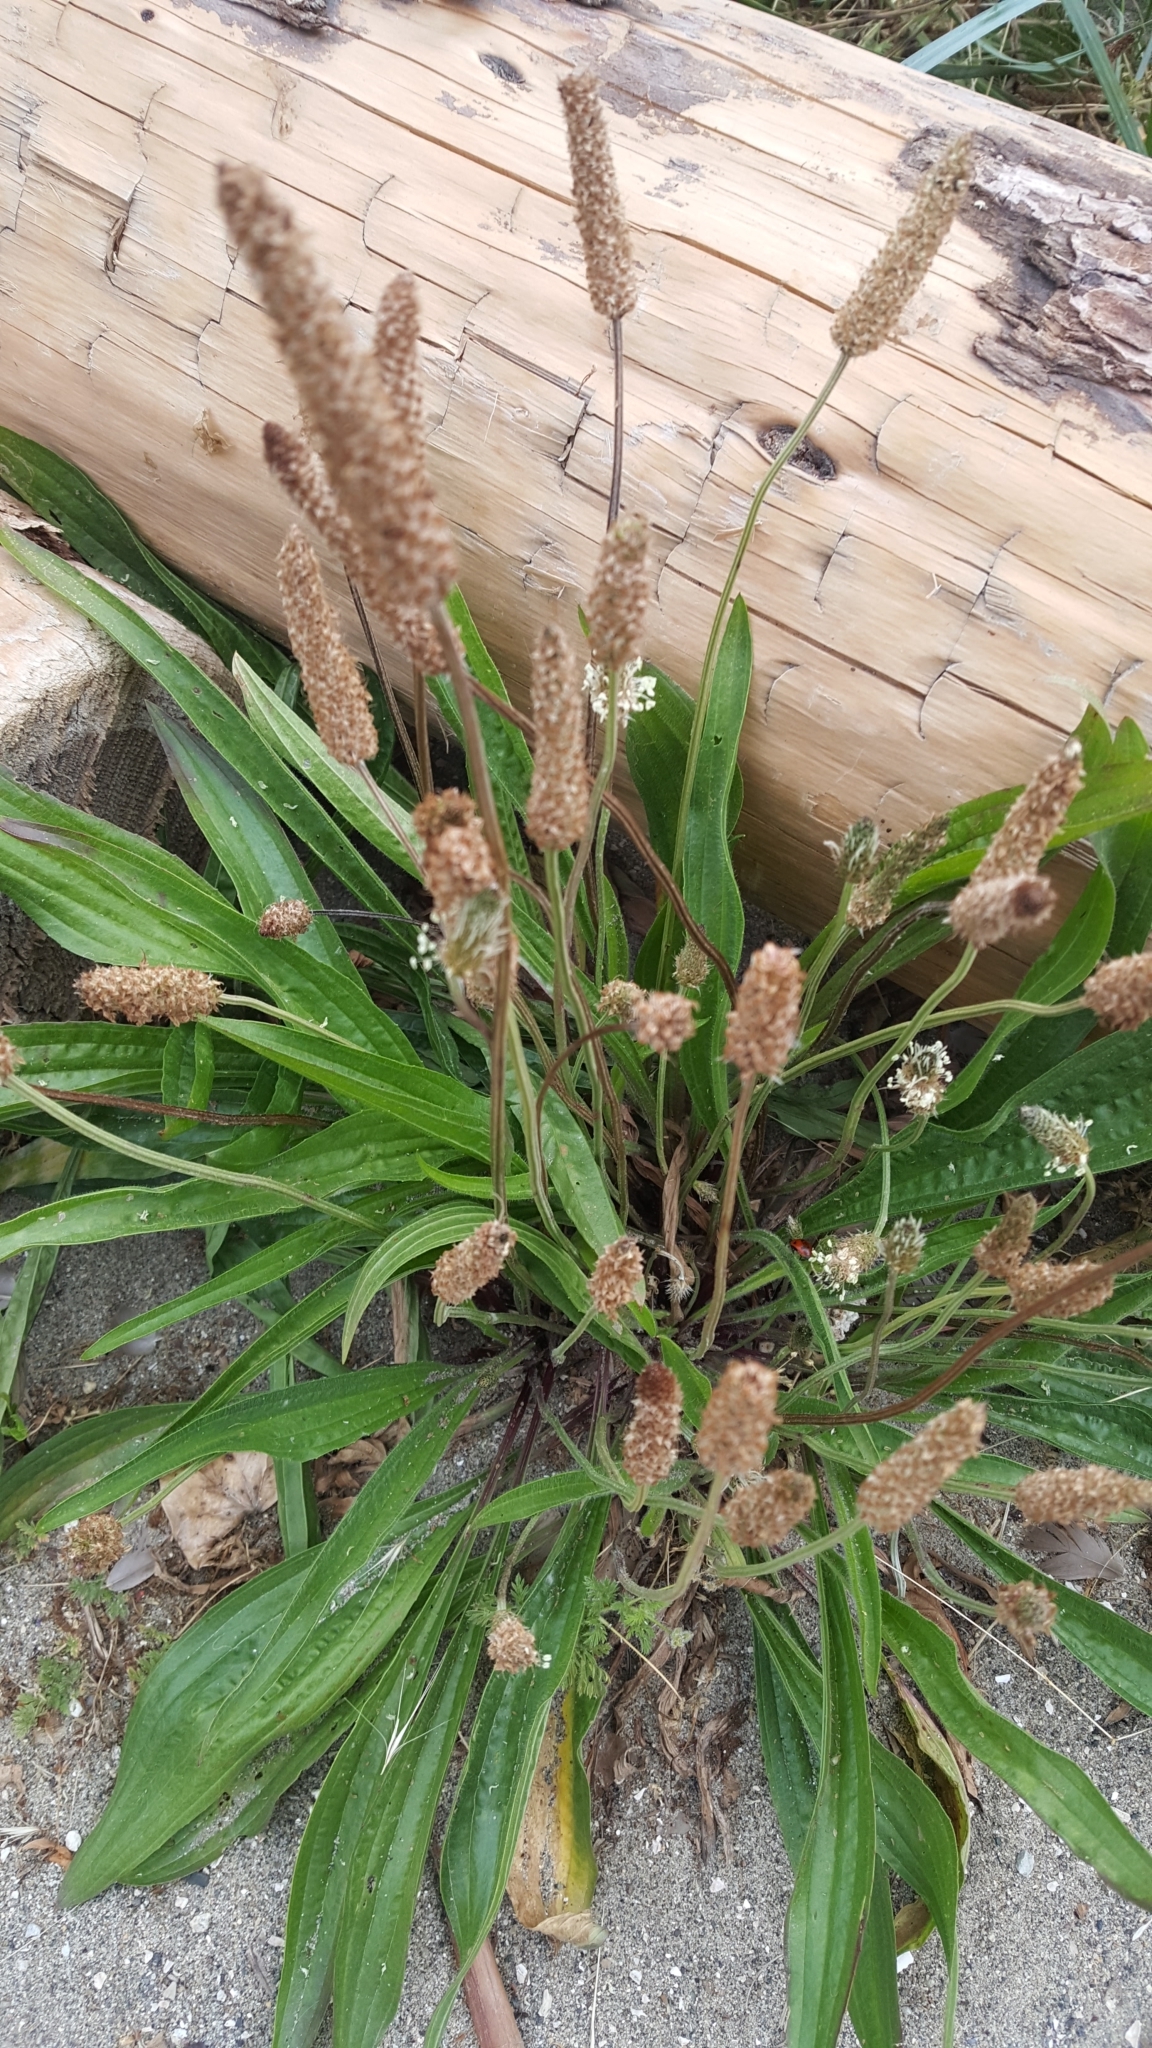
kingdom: Plantae
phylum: Tracheophyta
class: Magnoliopsida
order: Lamiales
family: Plantaginaceae
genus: Plantago
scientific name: Plantago lanceolata
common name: Ribwort plantain
